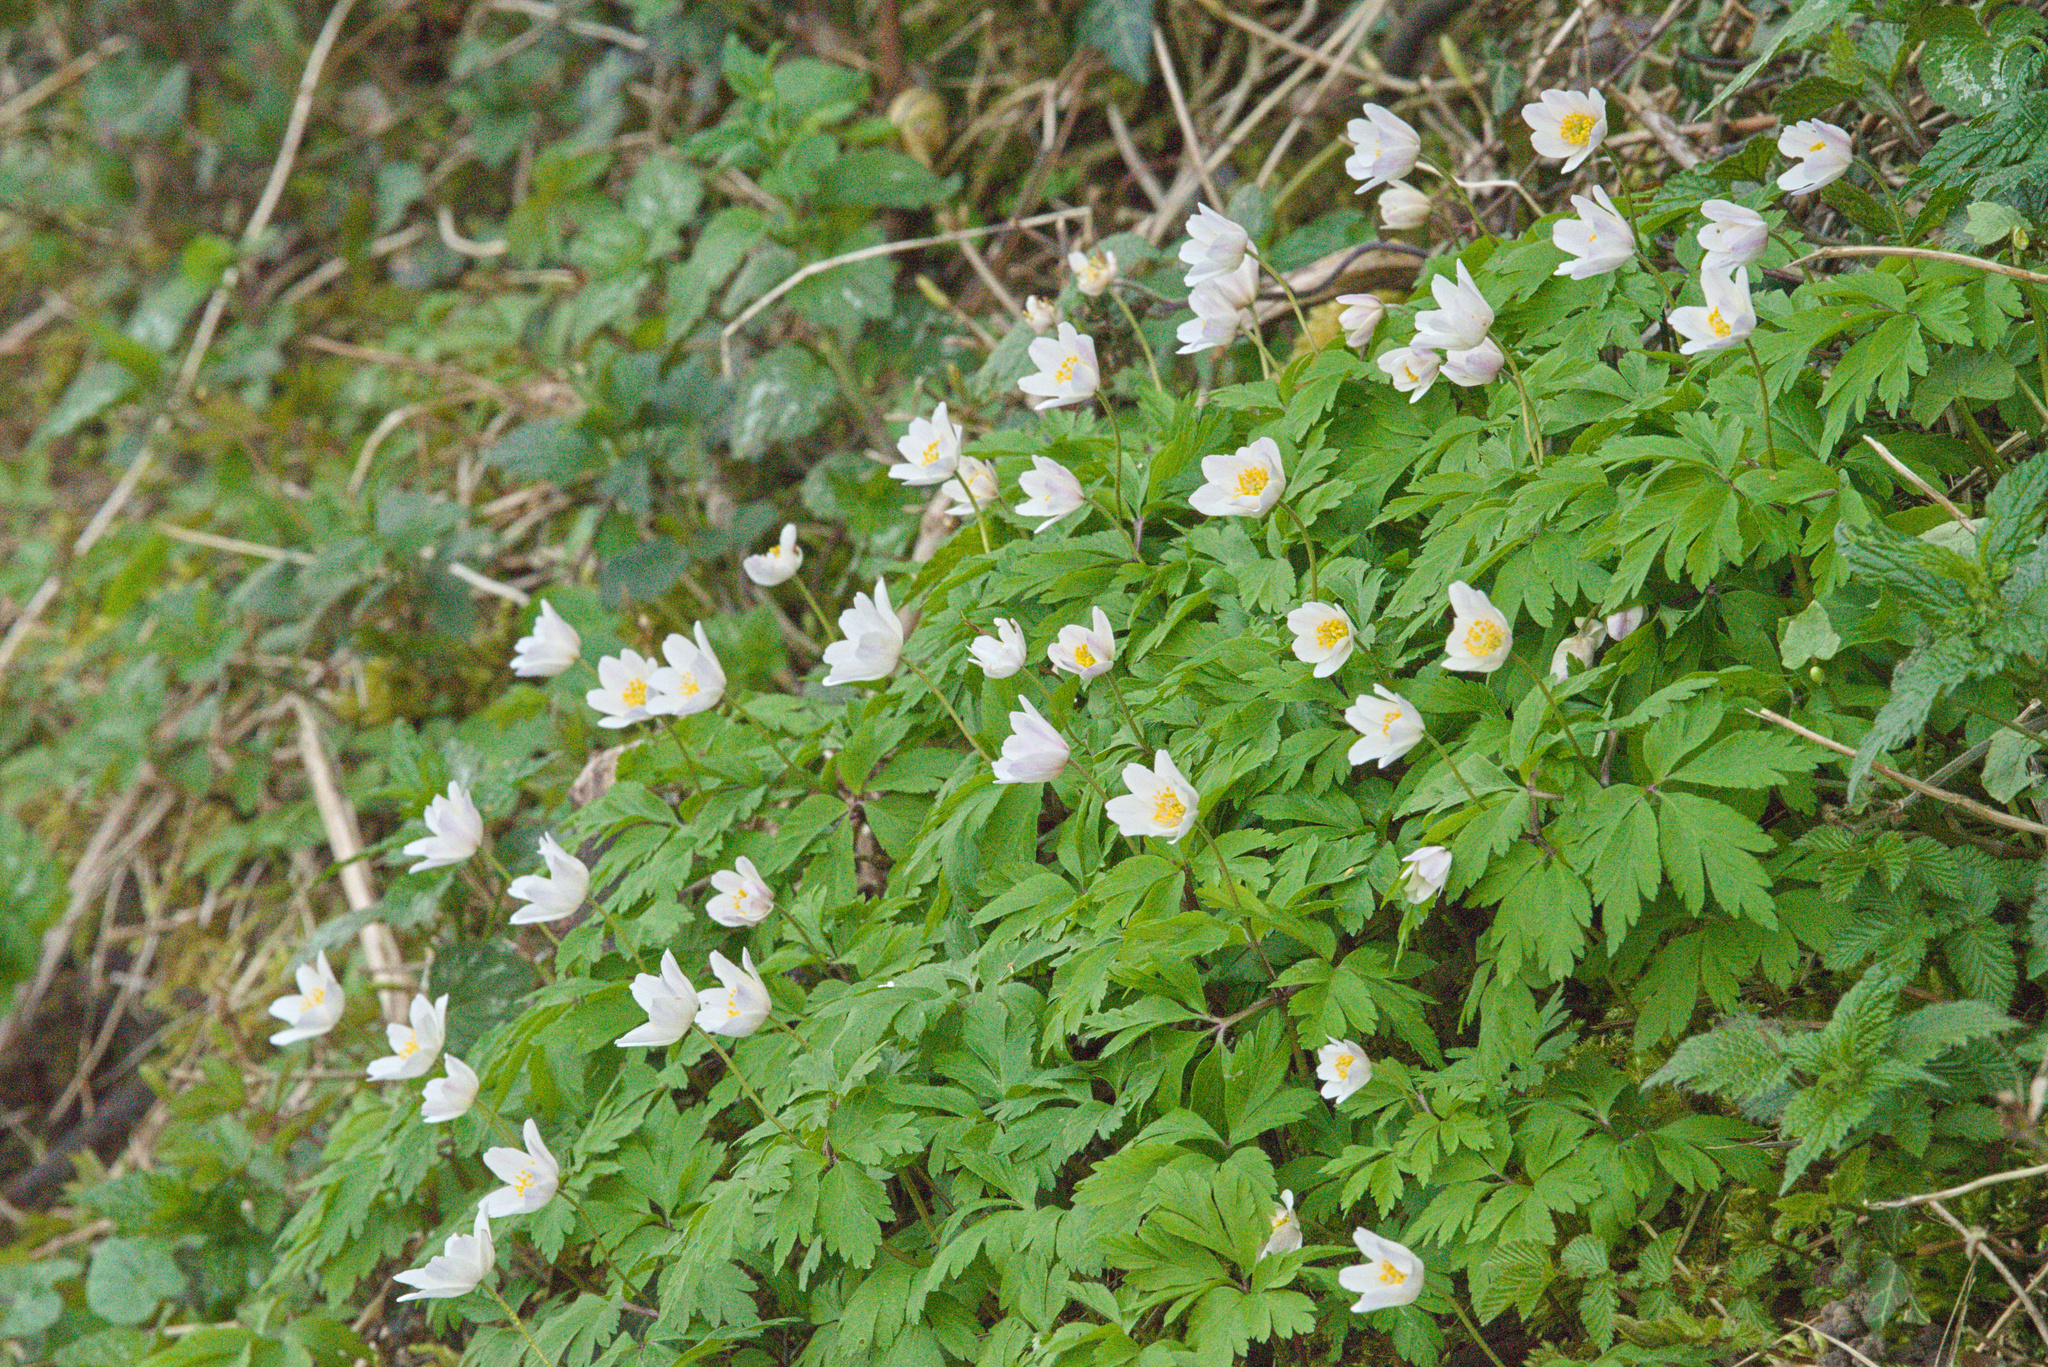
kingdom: Plantae
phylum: Tracheophyta
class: Magnoliopsida
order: Ranunculales
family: Ranunculaceae
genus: Anemone
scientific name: Anemone nemorosa
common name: Wood anemone
